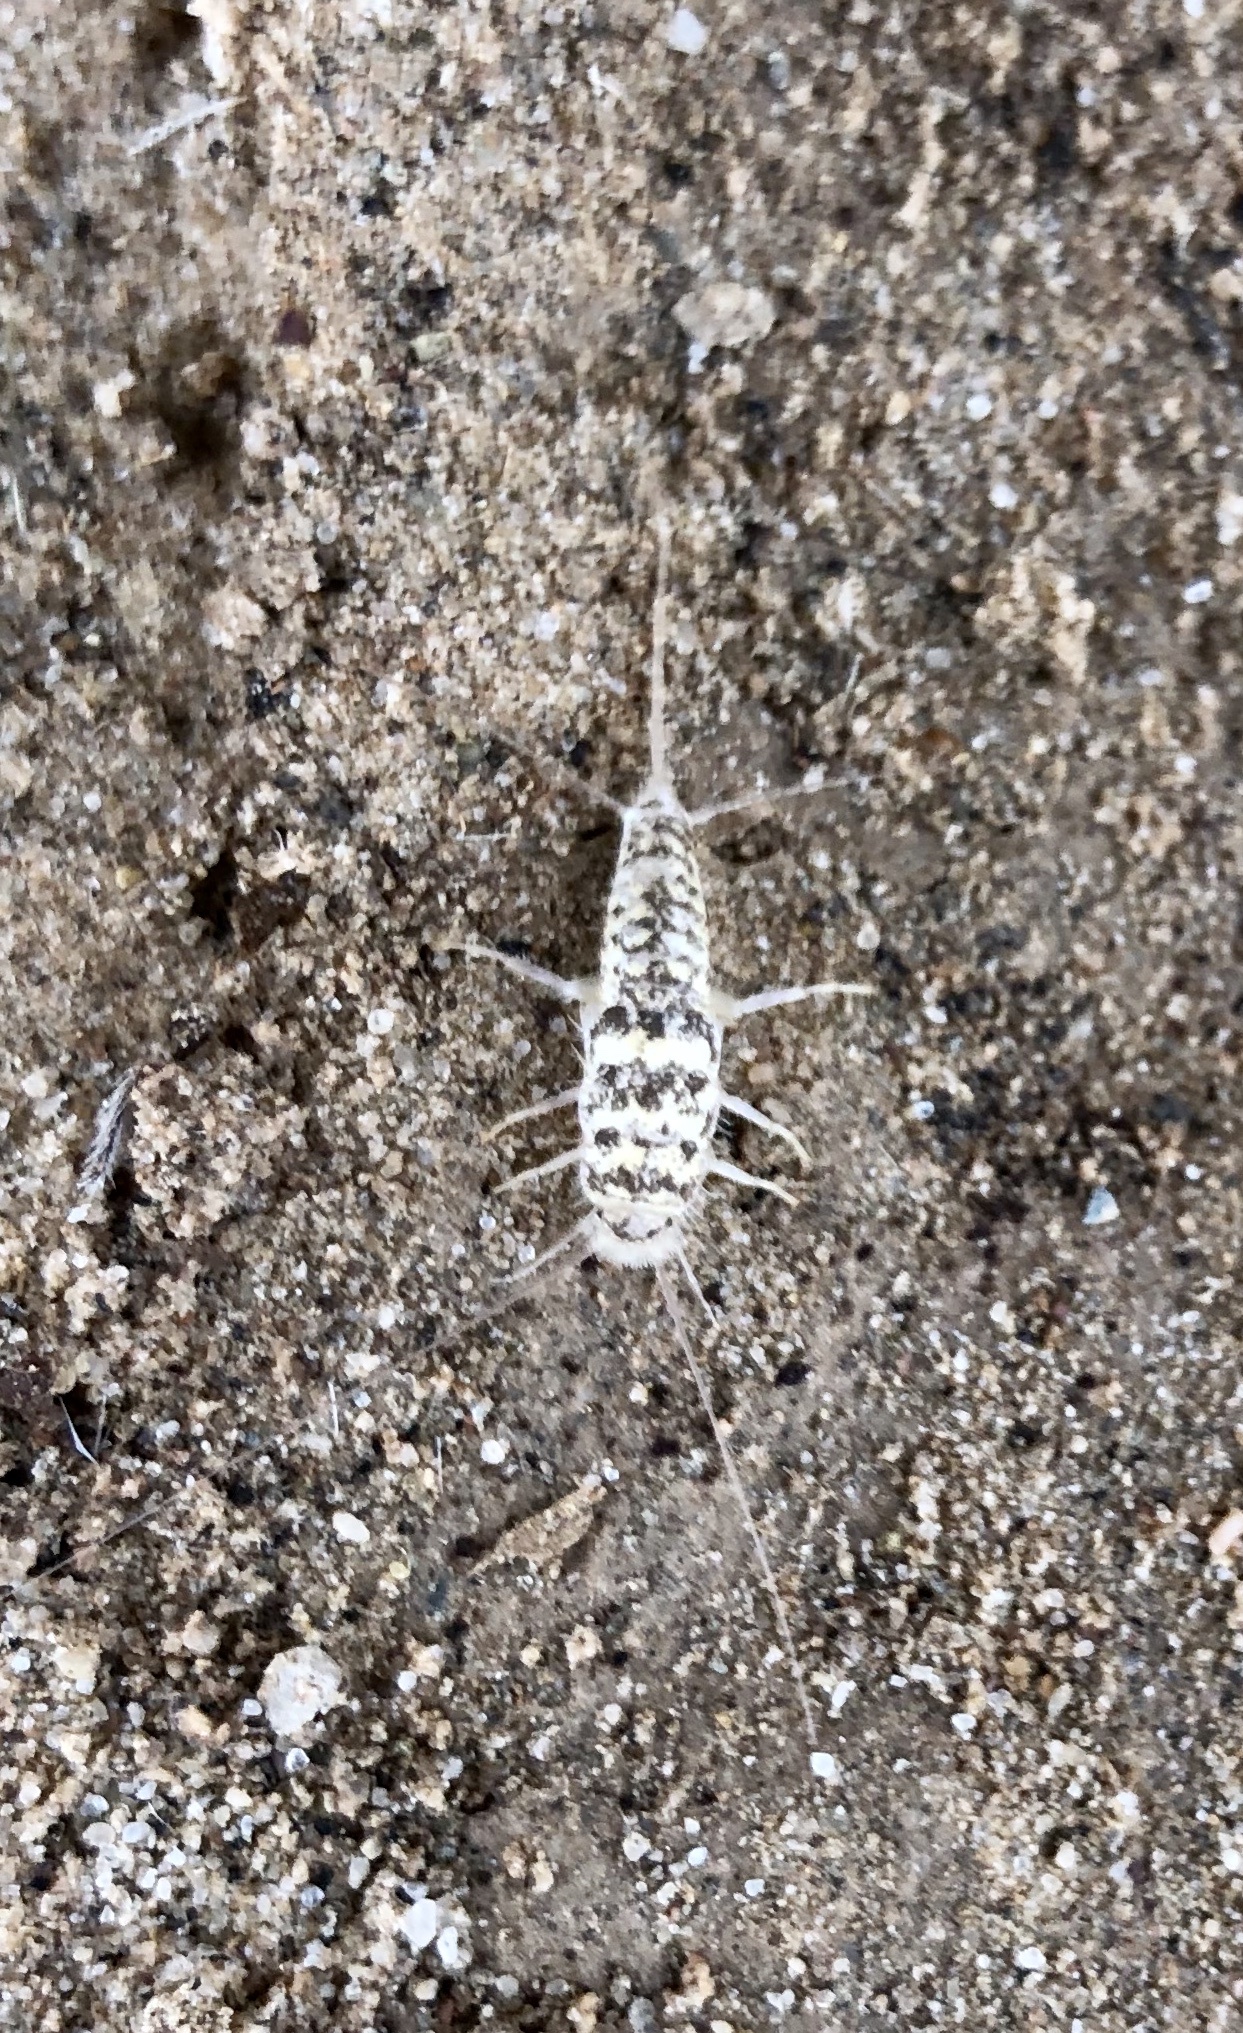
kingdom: Animalia
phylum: Arthropoda
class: Insecta
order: Zygentoma
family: Lepismatidae
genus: Leucolepisma
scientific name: Leucolepisma arenaria
